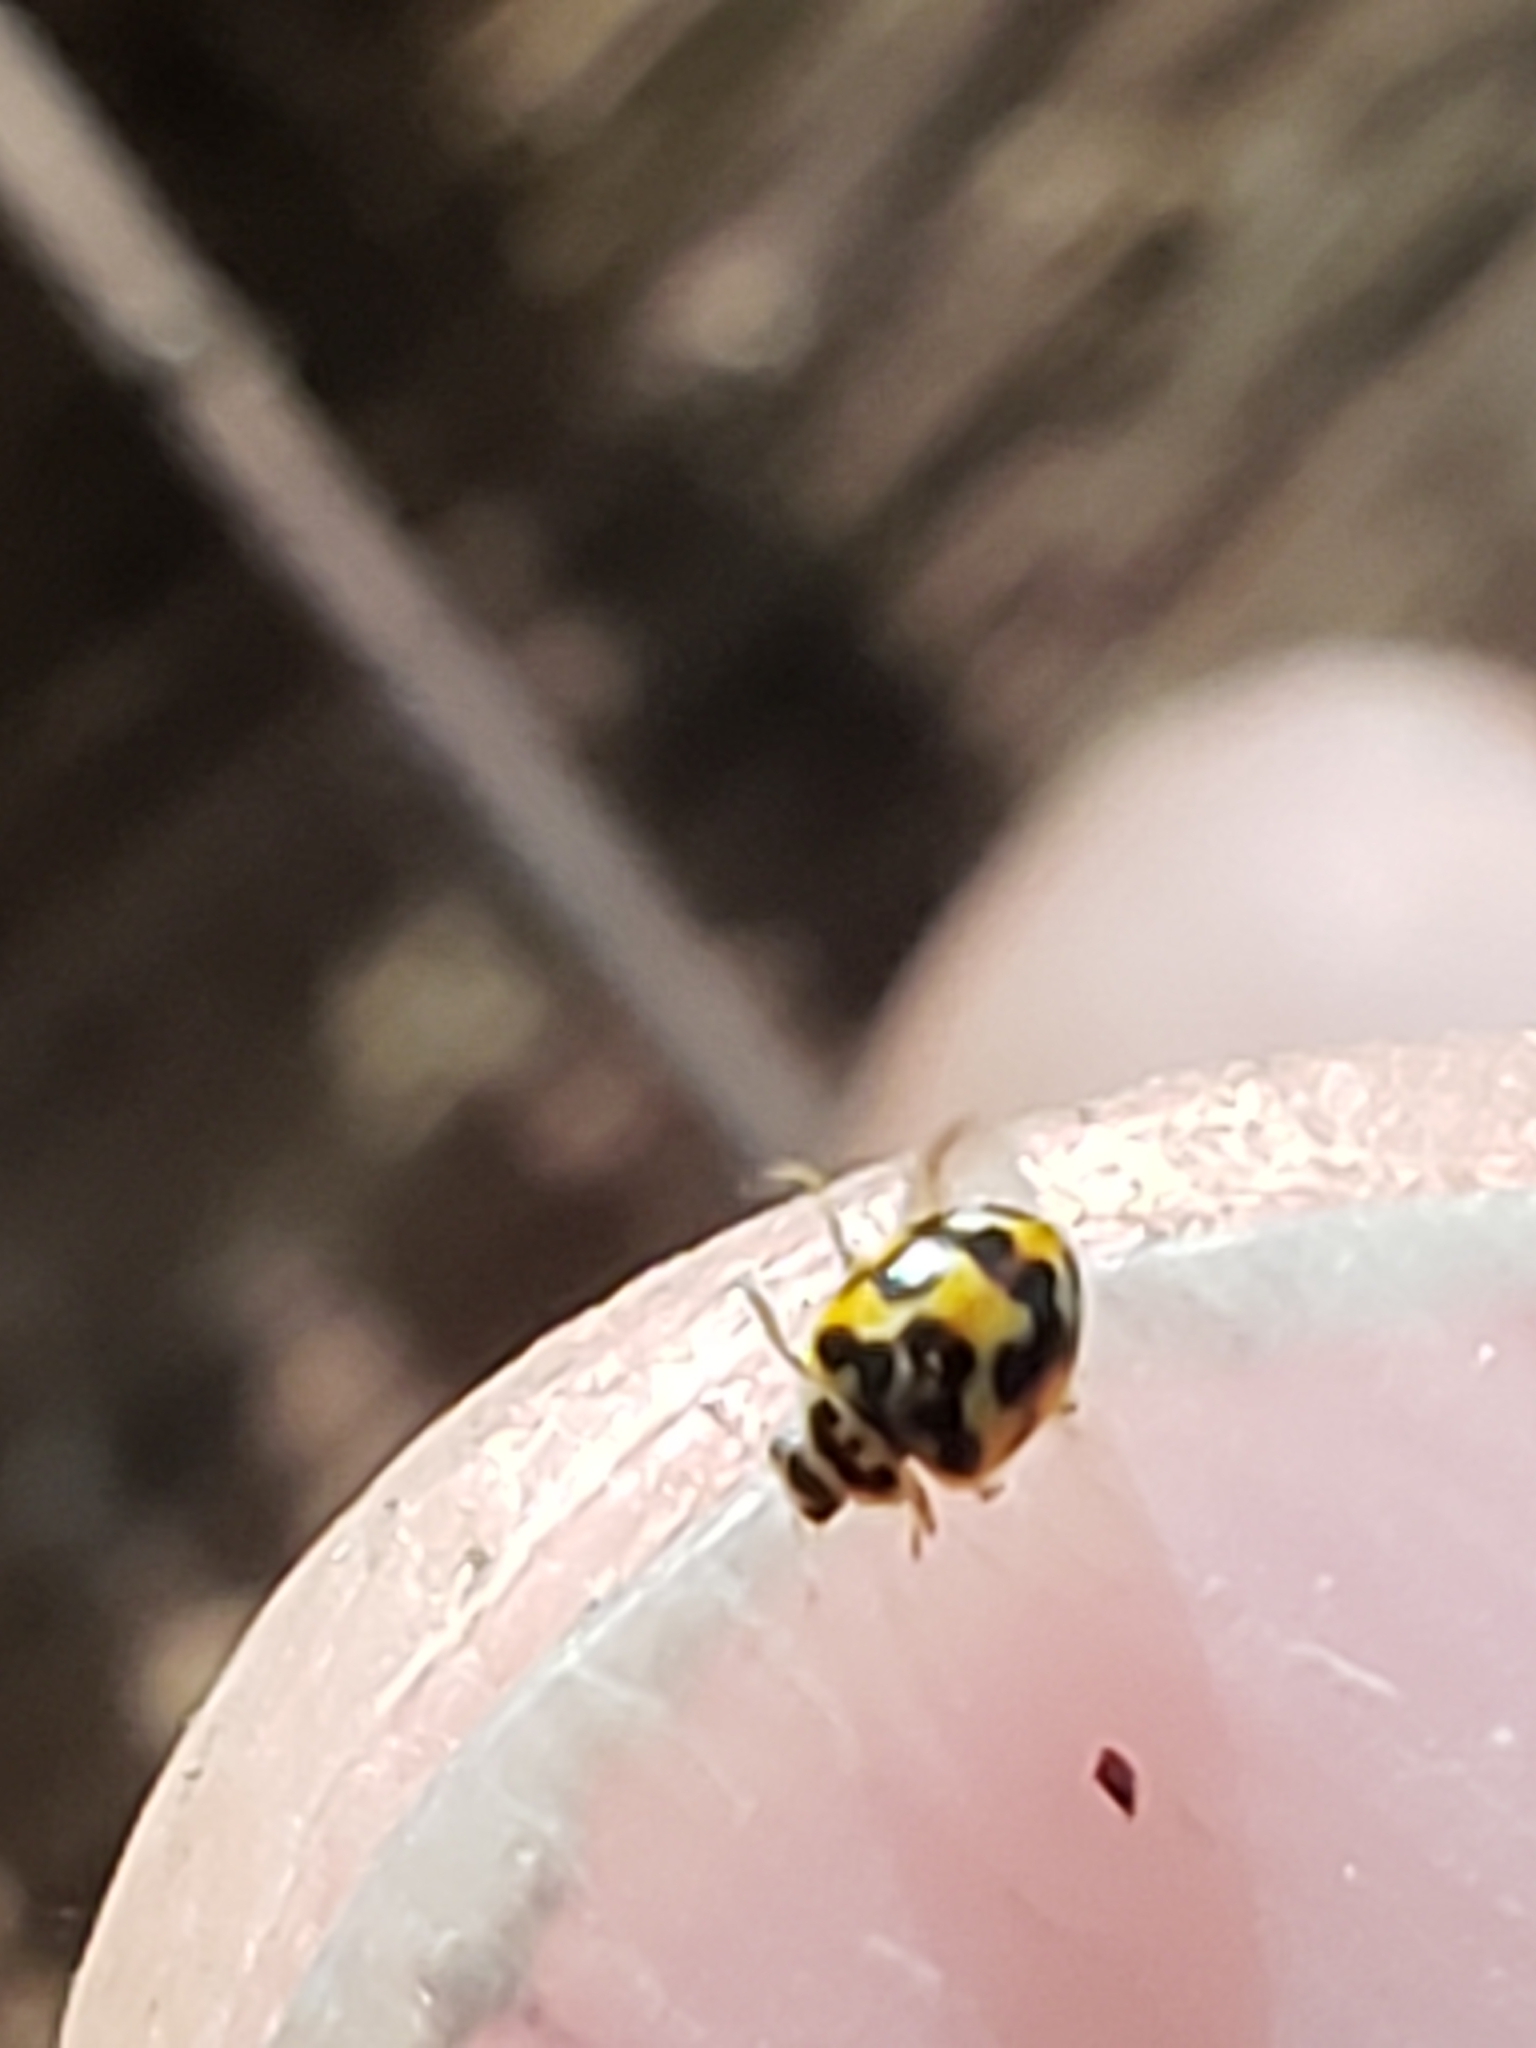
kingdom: Animalia
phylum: Arthropoda
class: Insecta
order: Coleoptera
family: Coccinellidae
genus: Psyllobora
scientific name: Psyllobora vigintimaculata
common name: Ladybird beetle
